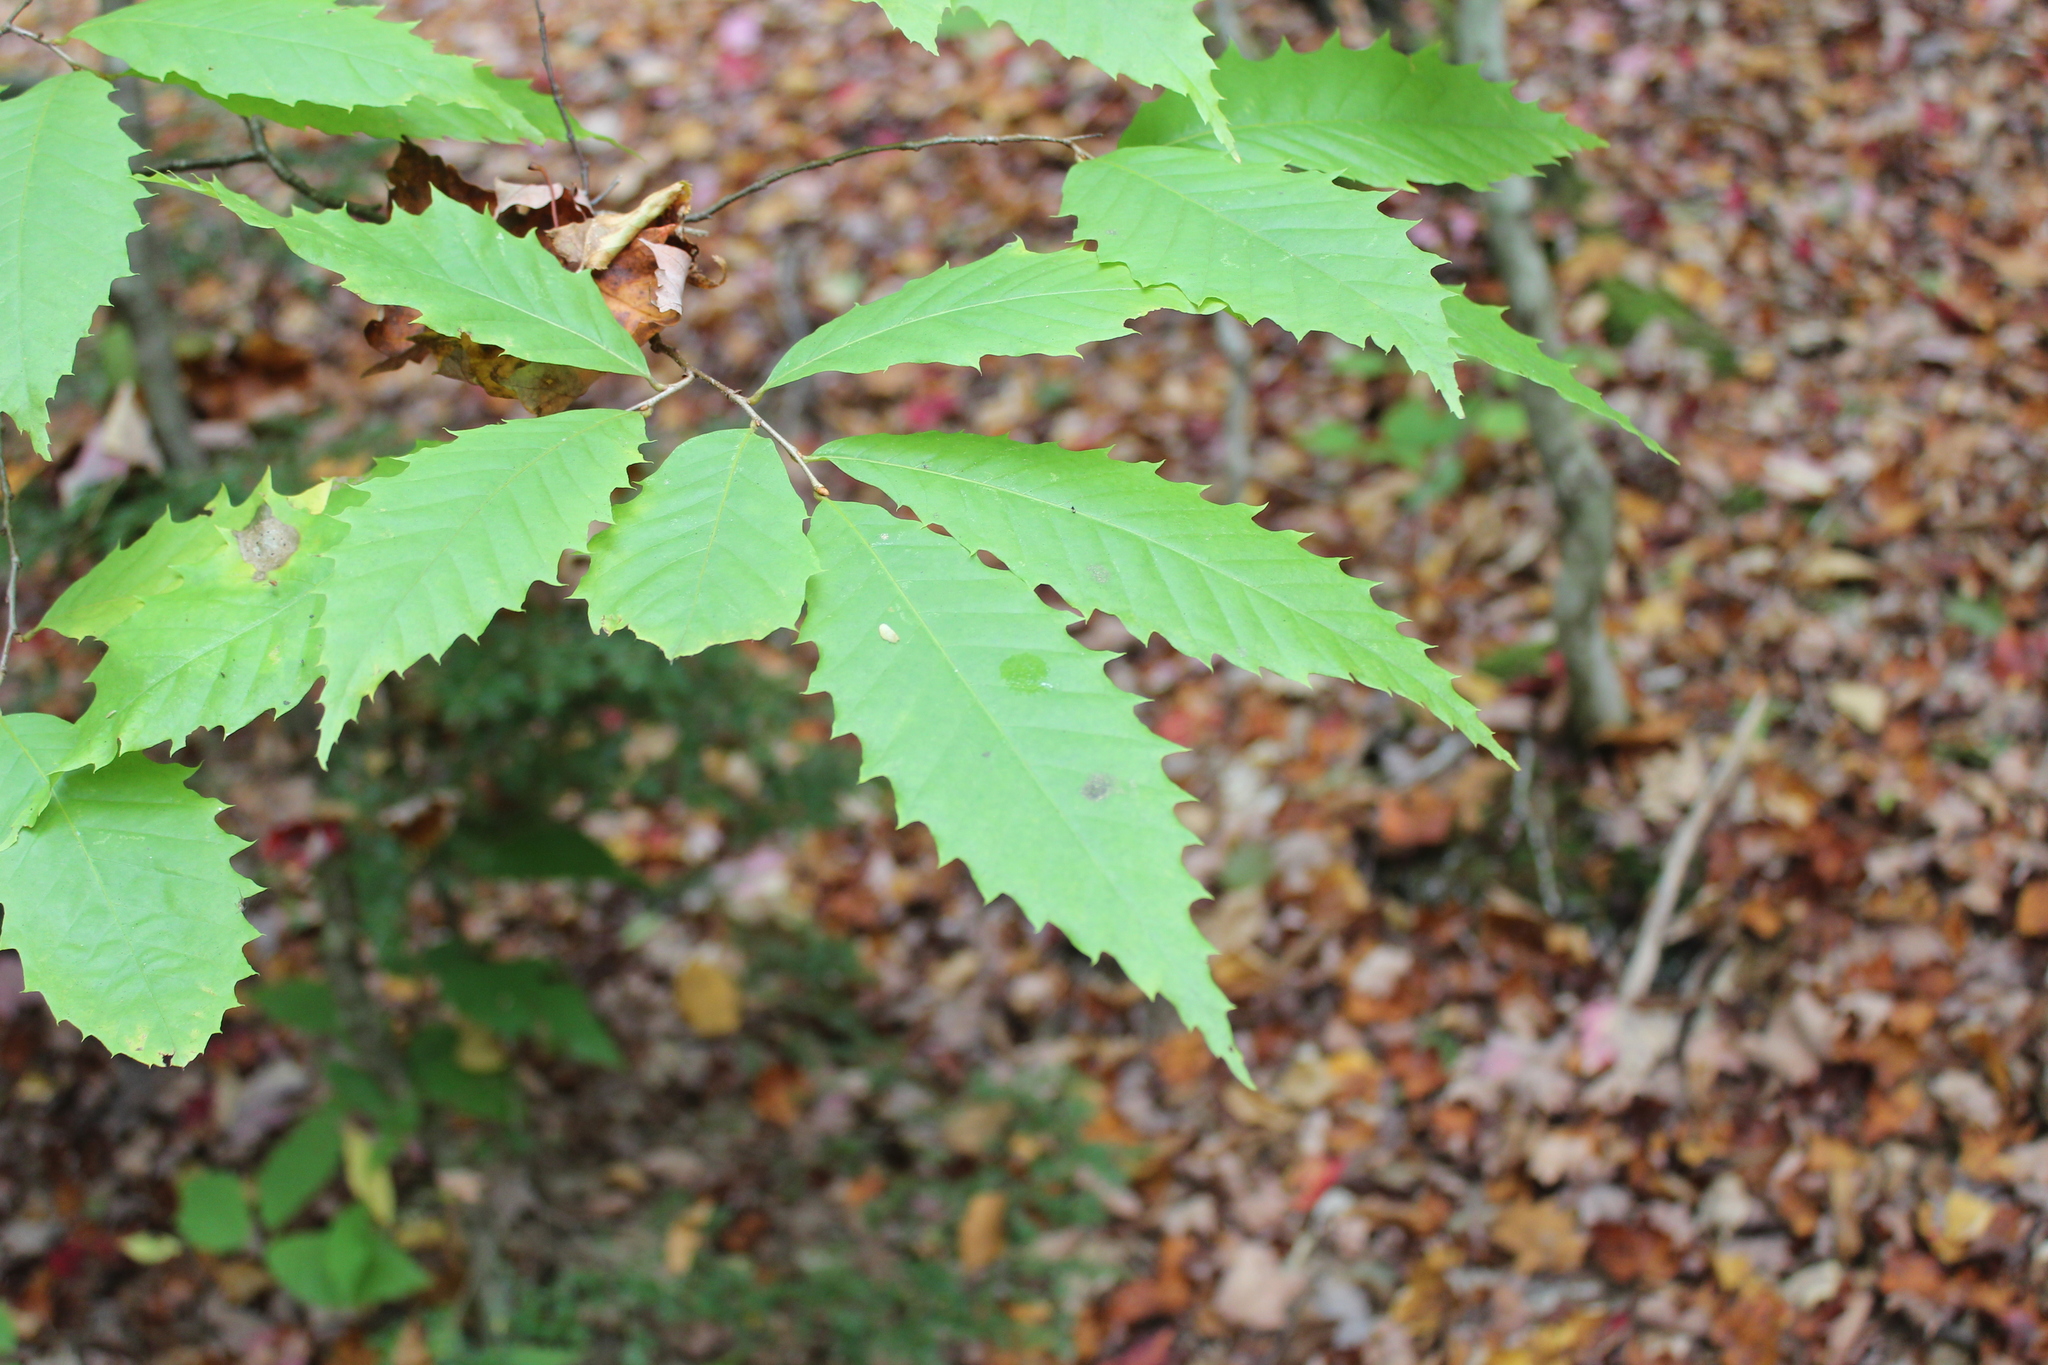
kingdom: Plantae
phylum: Tracheophyta
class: Magnoliopsida
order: Fagales
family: Fagaceae
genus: Castanea
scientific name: Castanea dentata
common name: American chestnut
